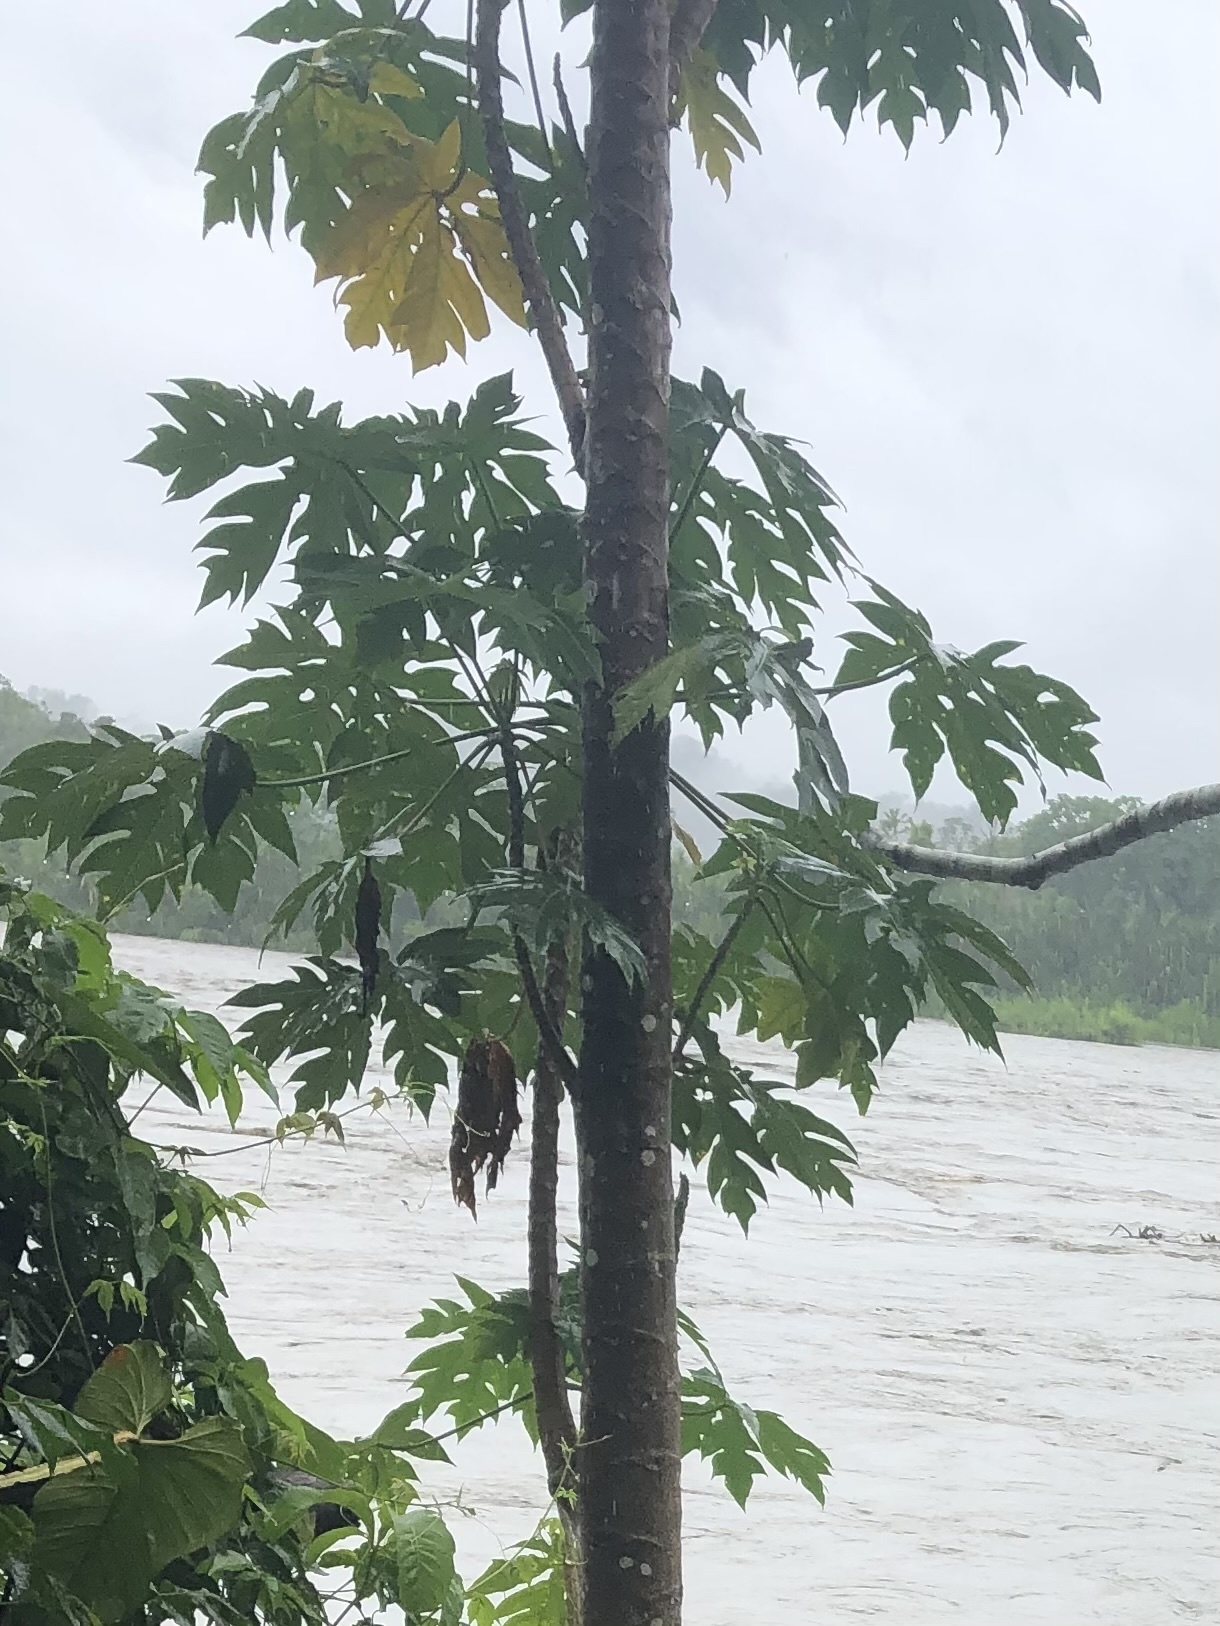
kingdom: Plantae
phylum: Tracheophyta
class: Magnoliopsida
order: Brassicales
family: Caricaceae
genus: Carica
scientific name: Carica papaya
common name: Papaya
